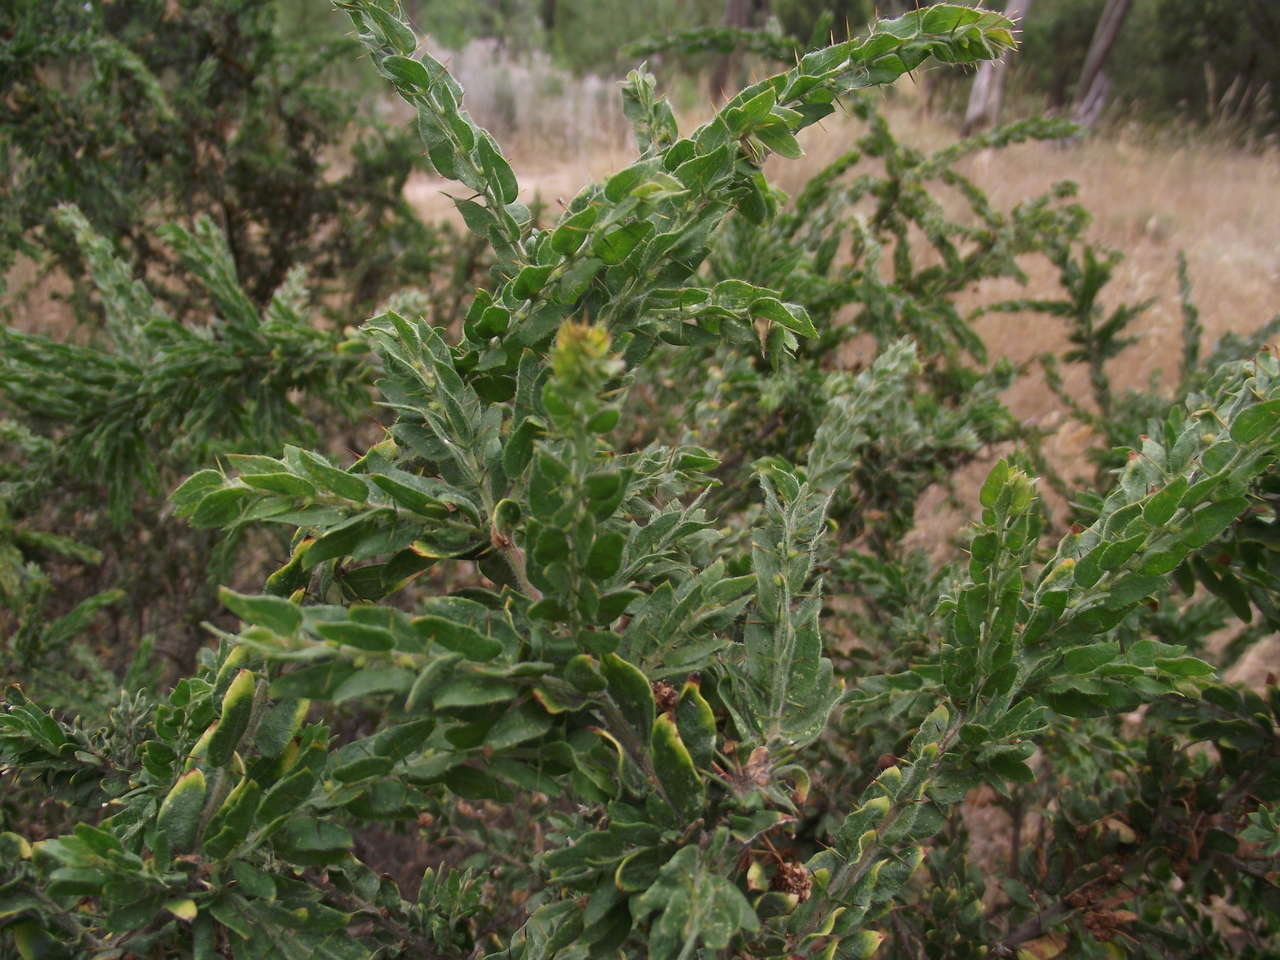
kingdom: Plantae
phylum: Tracheophyta
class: Magnoliopsida
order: Fabales
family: Fabaceae
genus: Acacia
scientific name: Acacia paradoxa
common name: Paradox acacia
